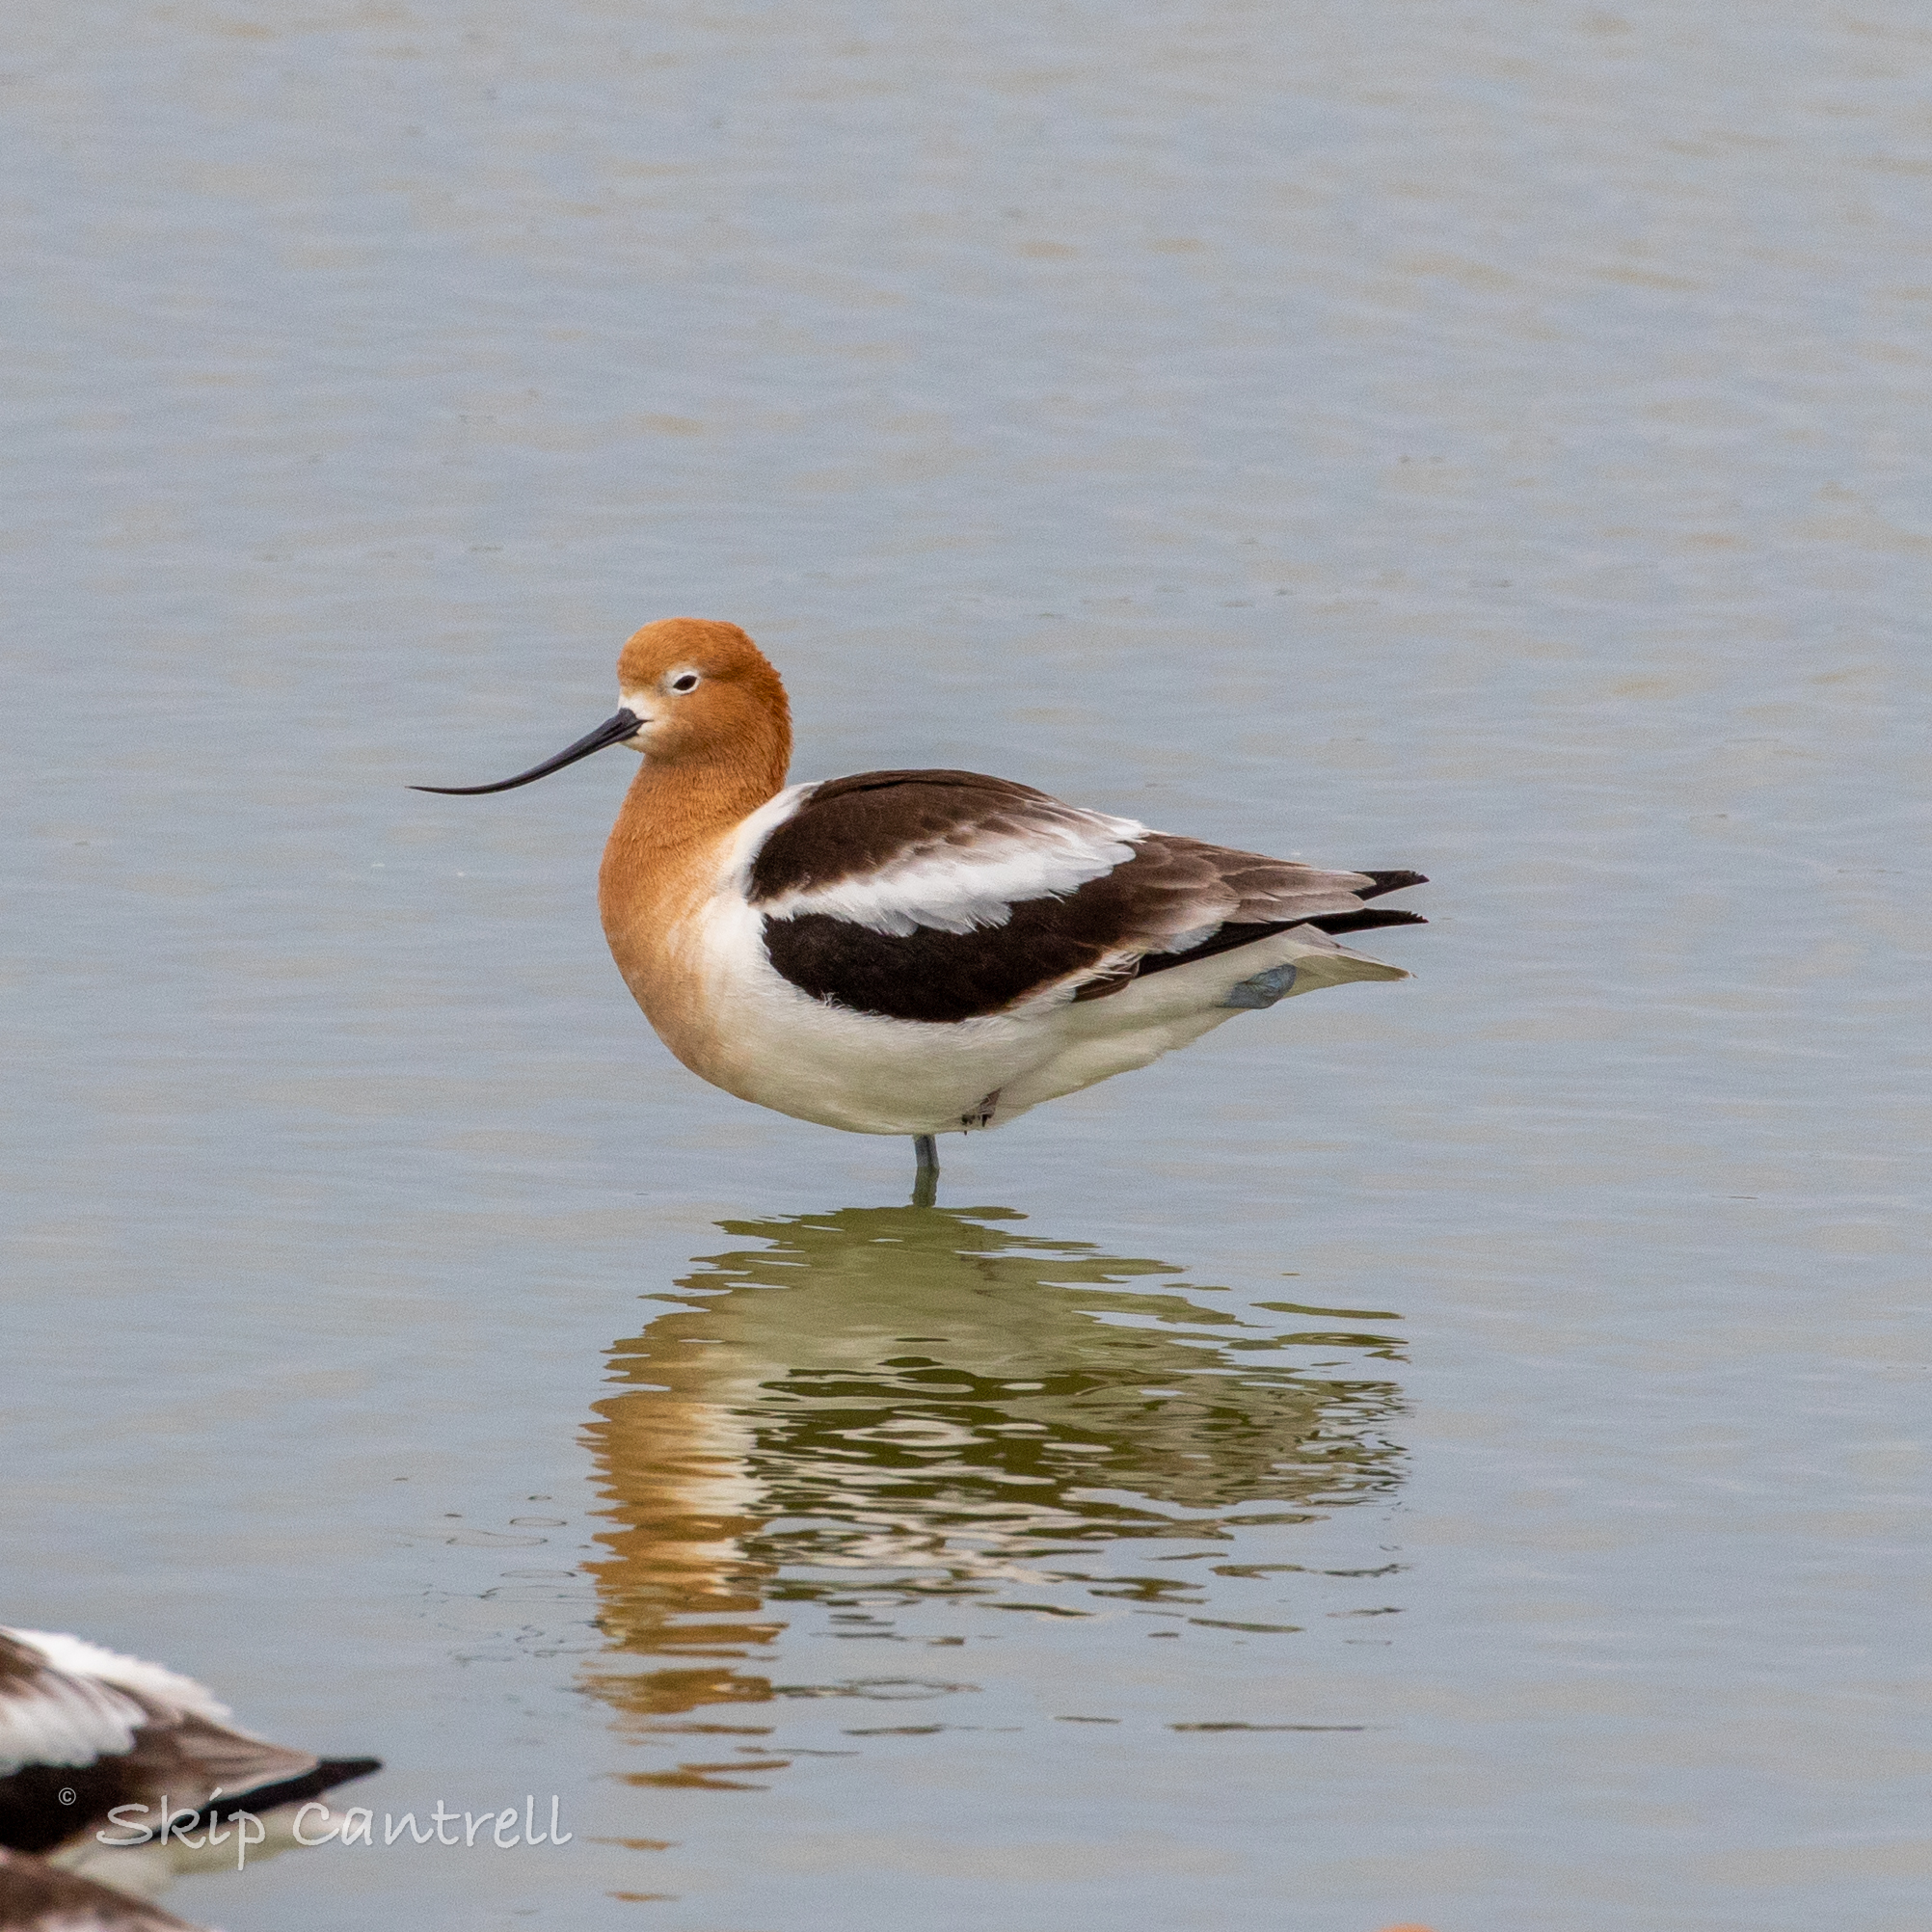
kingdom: Animalia
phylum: Chordata
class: Aves
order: Charadriiformes
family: Recurvirostridae
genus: Recurvirostra
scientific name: Recurvirostra americana
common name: American avocet
